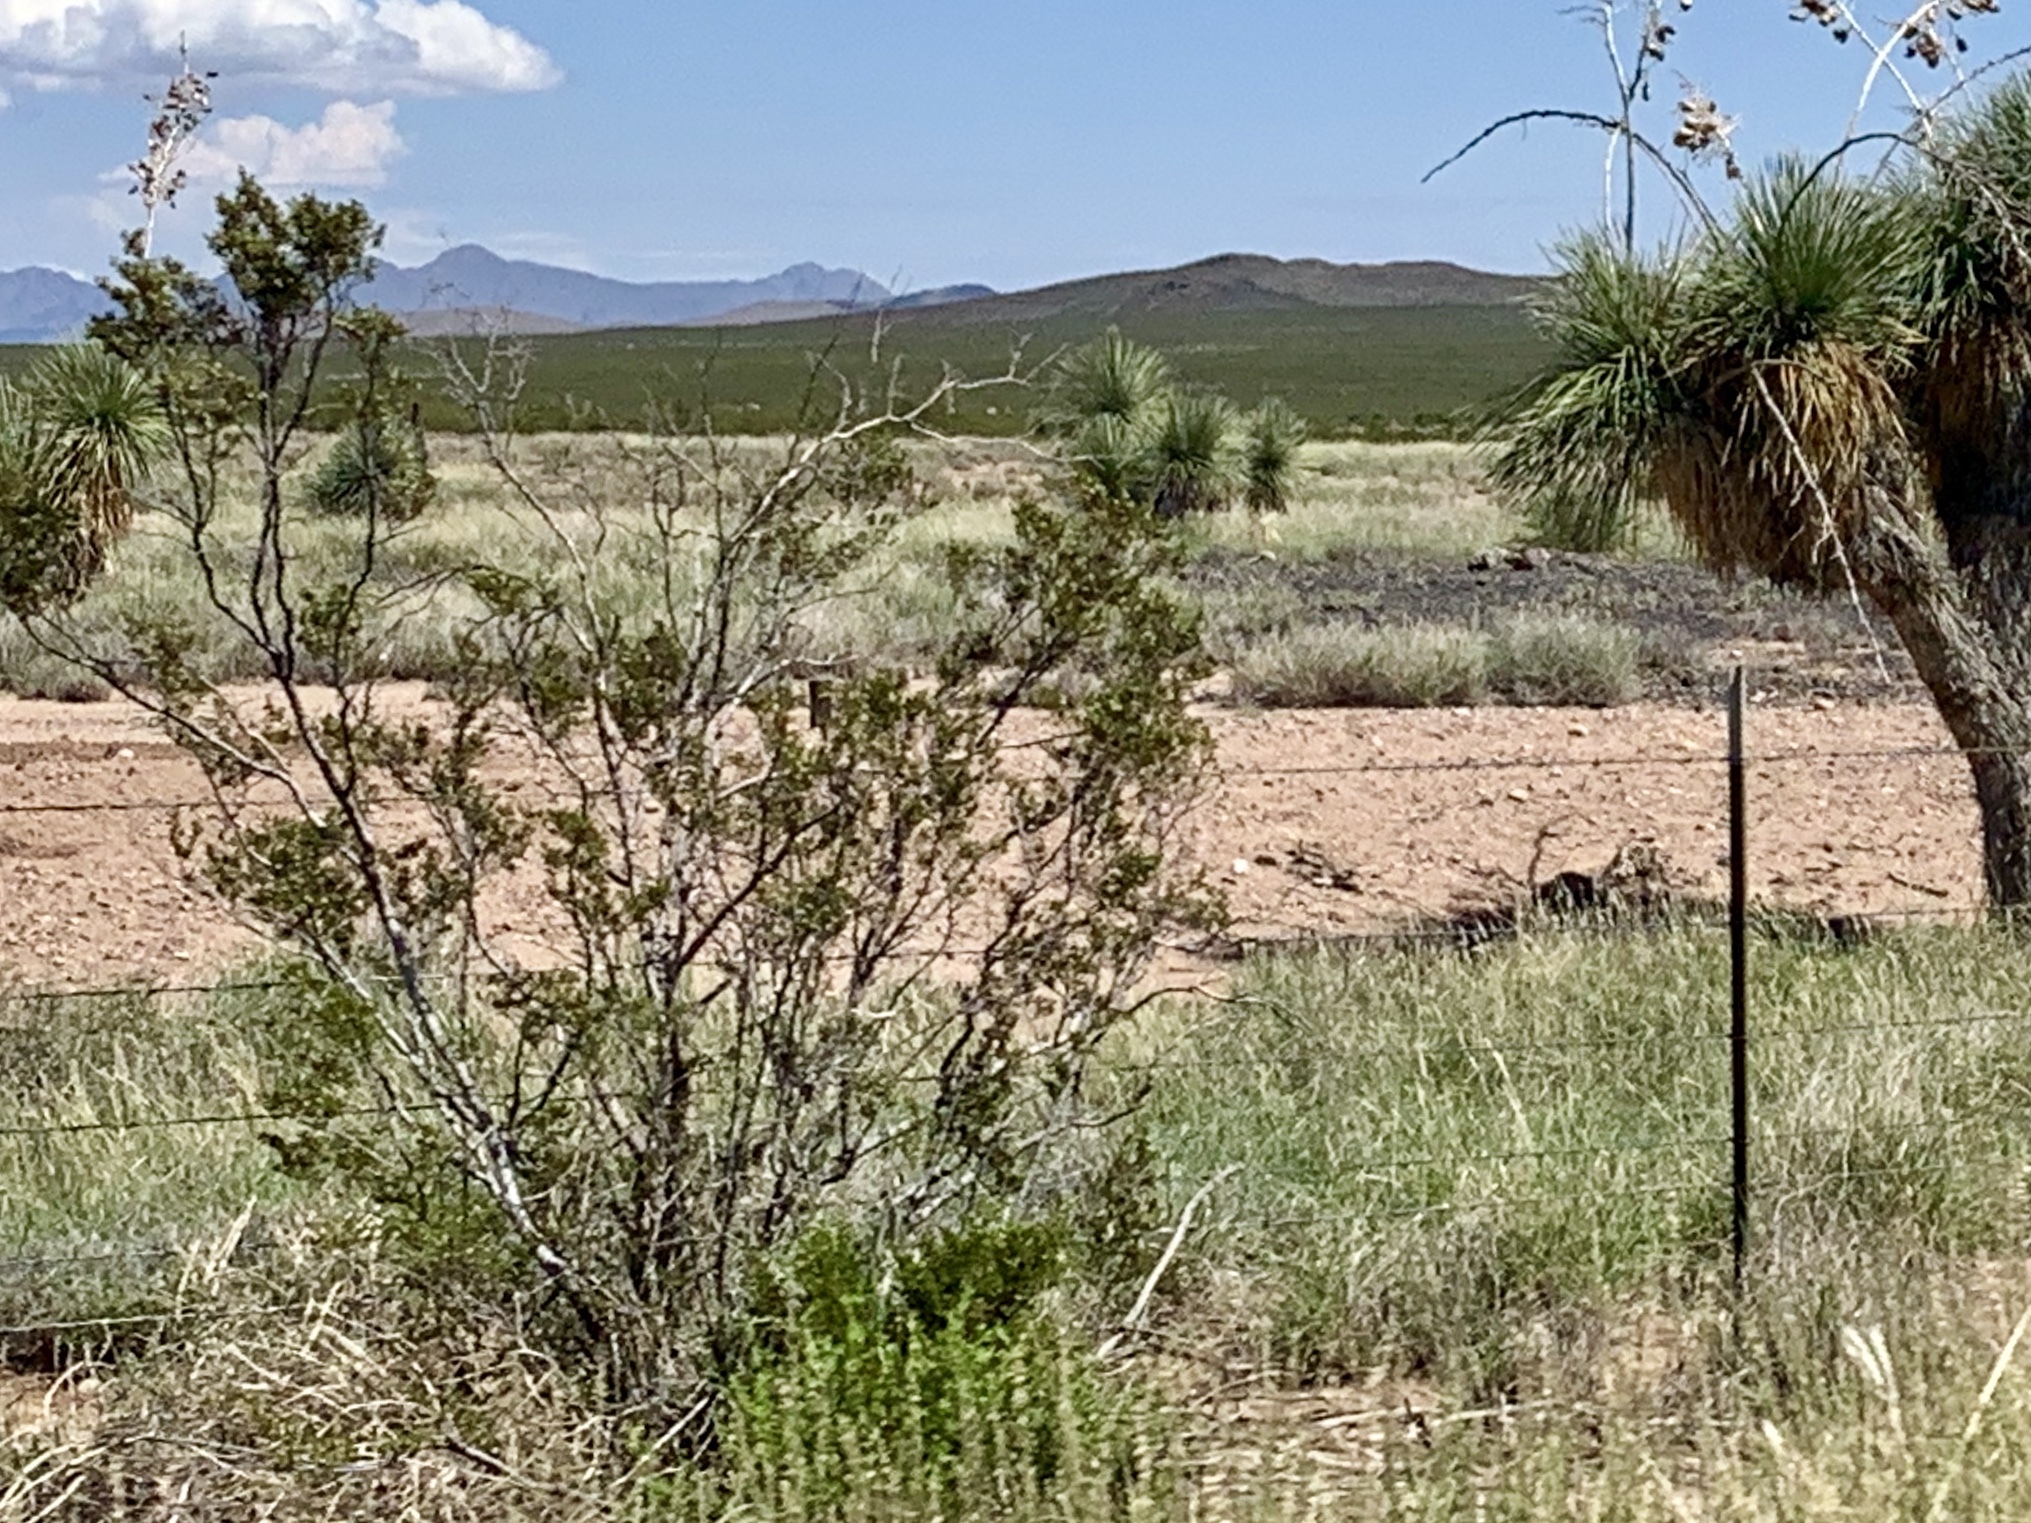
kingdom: Plantae
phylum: Tracheophyta
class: Magnoliopsida
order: Zygophyllales
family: Zygophyllaceae
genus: Larrea
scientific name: Larrea tridentata
